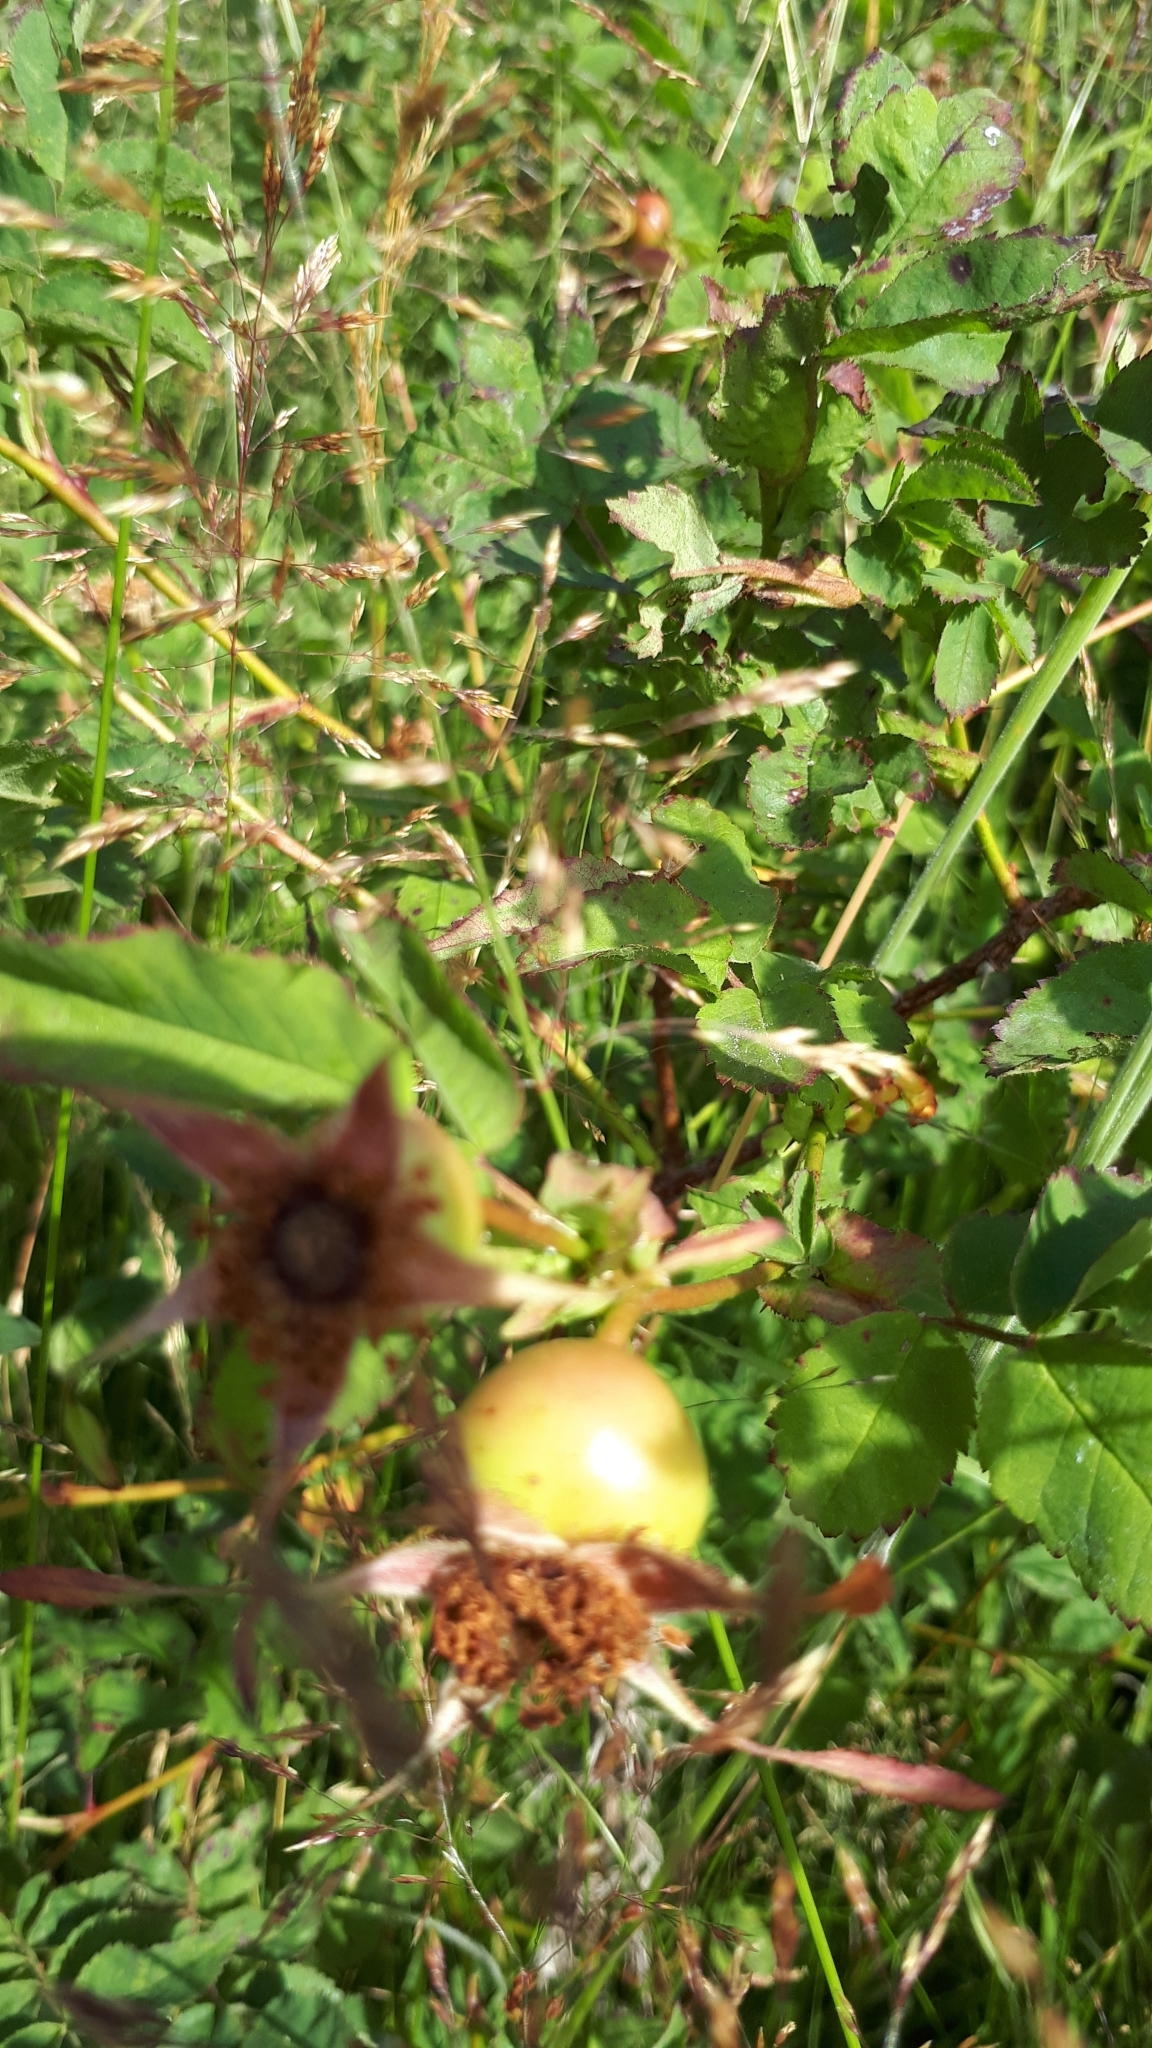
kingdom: Plantae
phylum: Tracheophyta
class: Magnoliopsida
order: Rosales
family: Rosaceae
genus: Rosa
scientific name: Rosa nutkana
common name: Nootka rose
